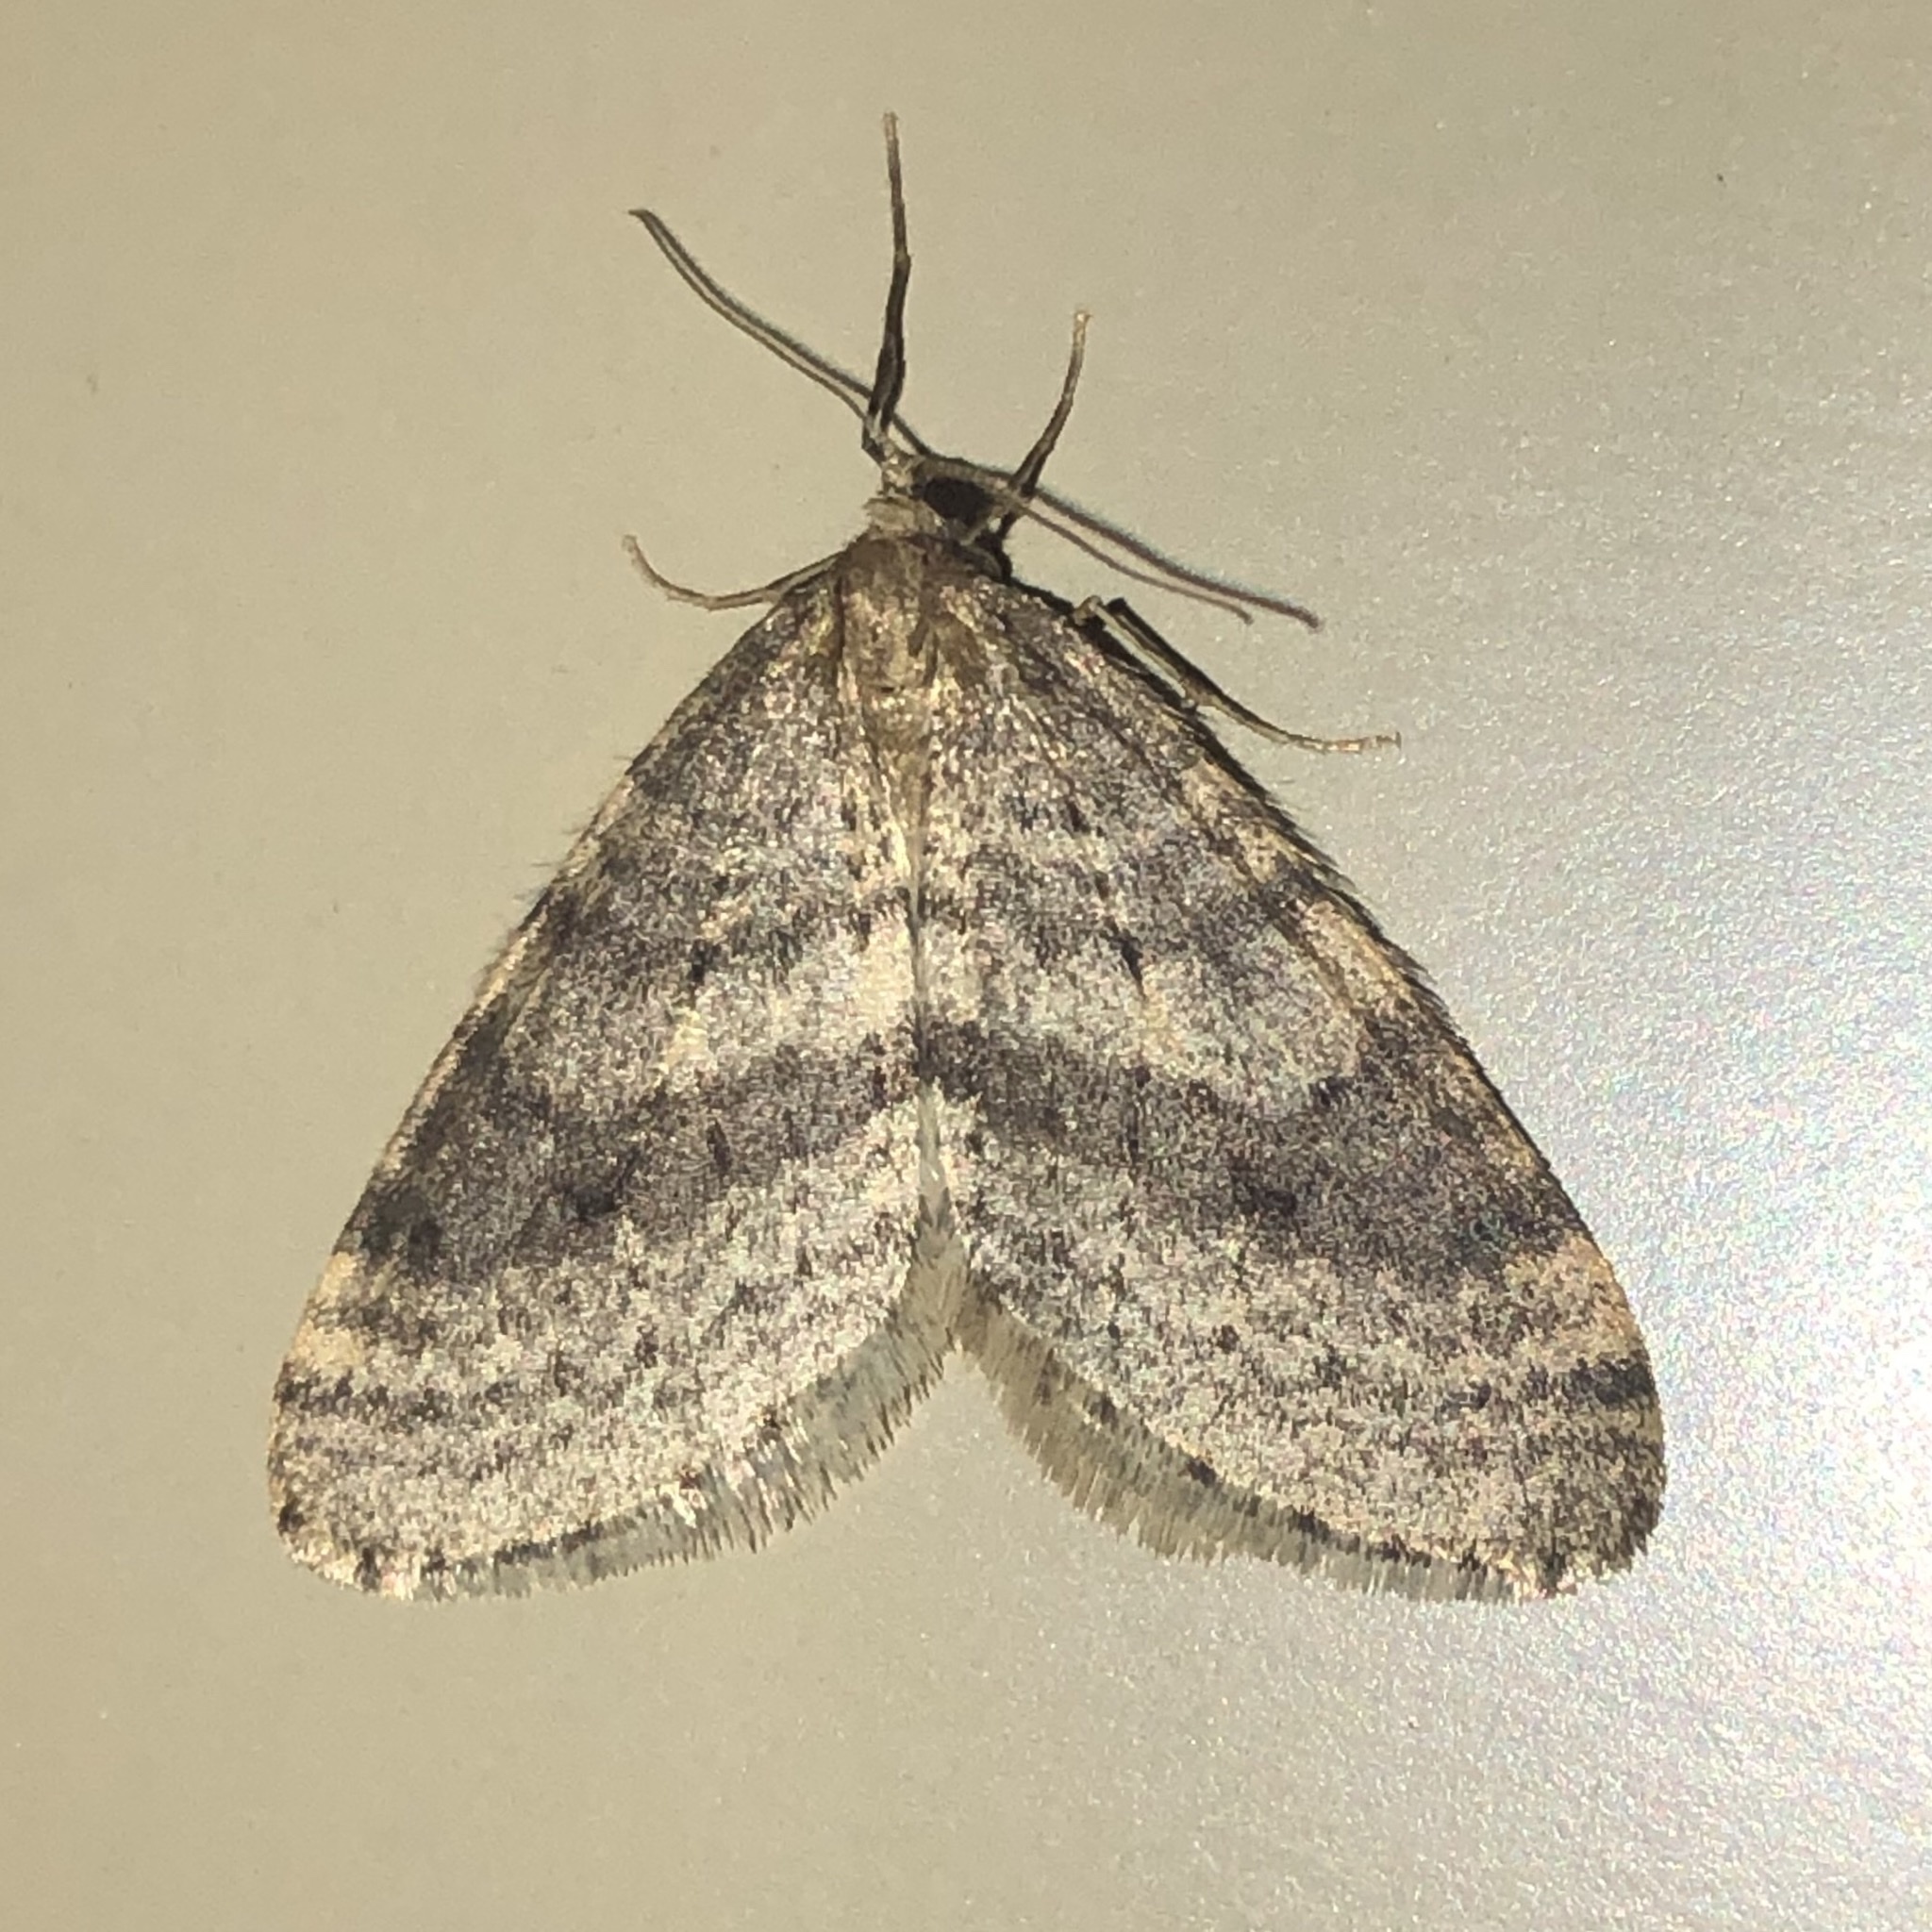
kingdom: Animalia
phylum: Arthropoda
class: Insecta
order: Lepidoptera
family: Geometridae
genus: Operophtera
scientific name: Operophtera bruceata
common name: Bruce spanworm
